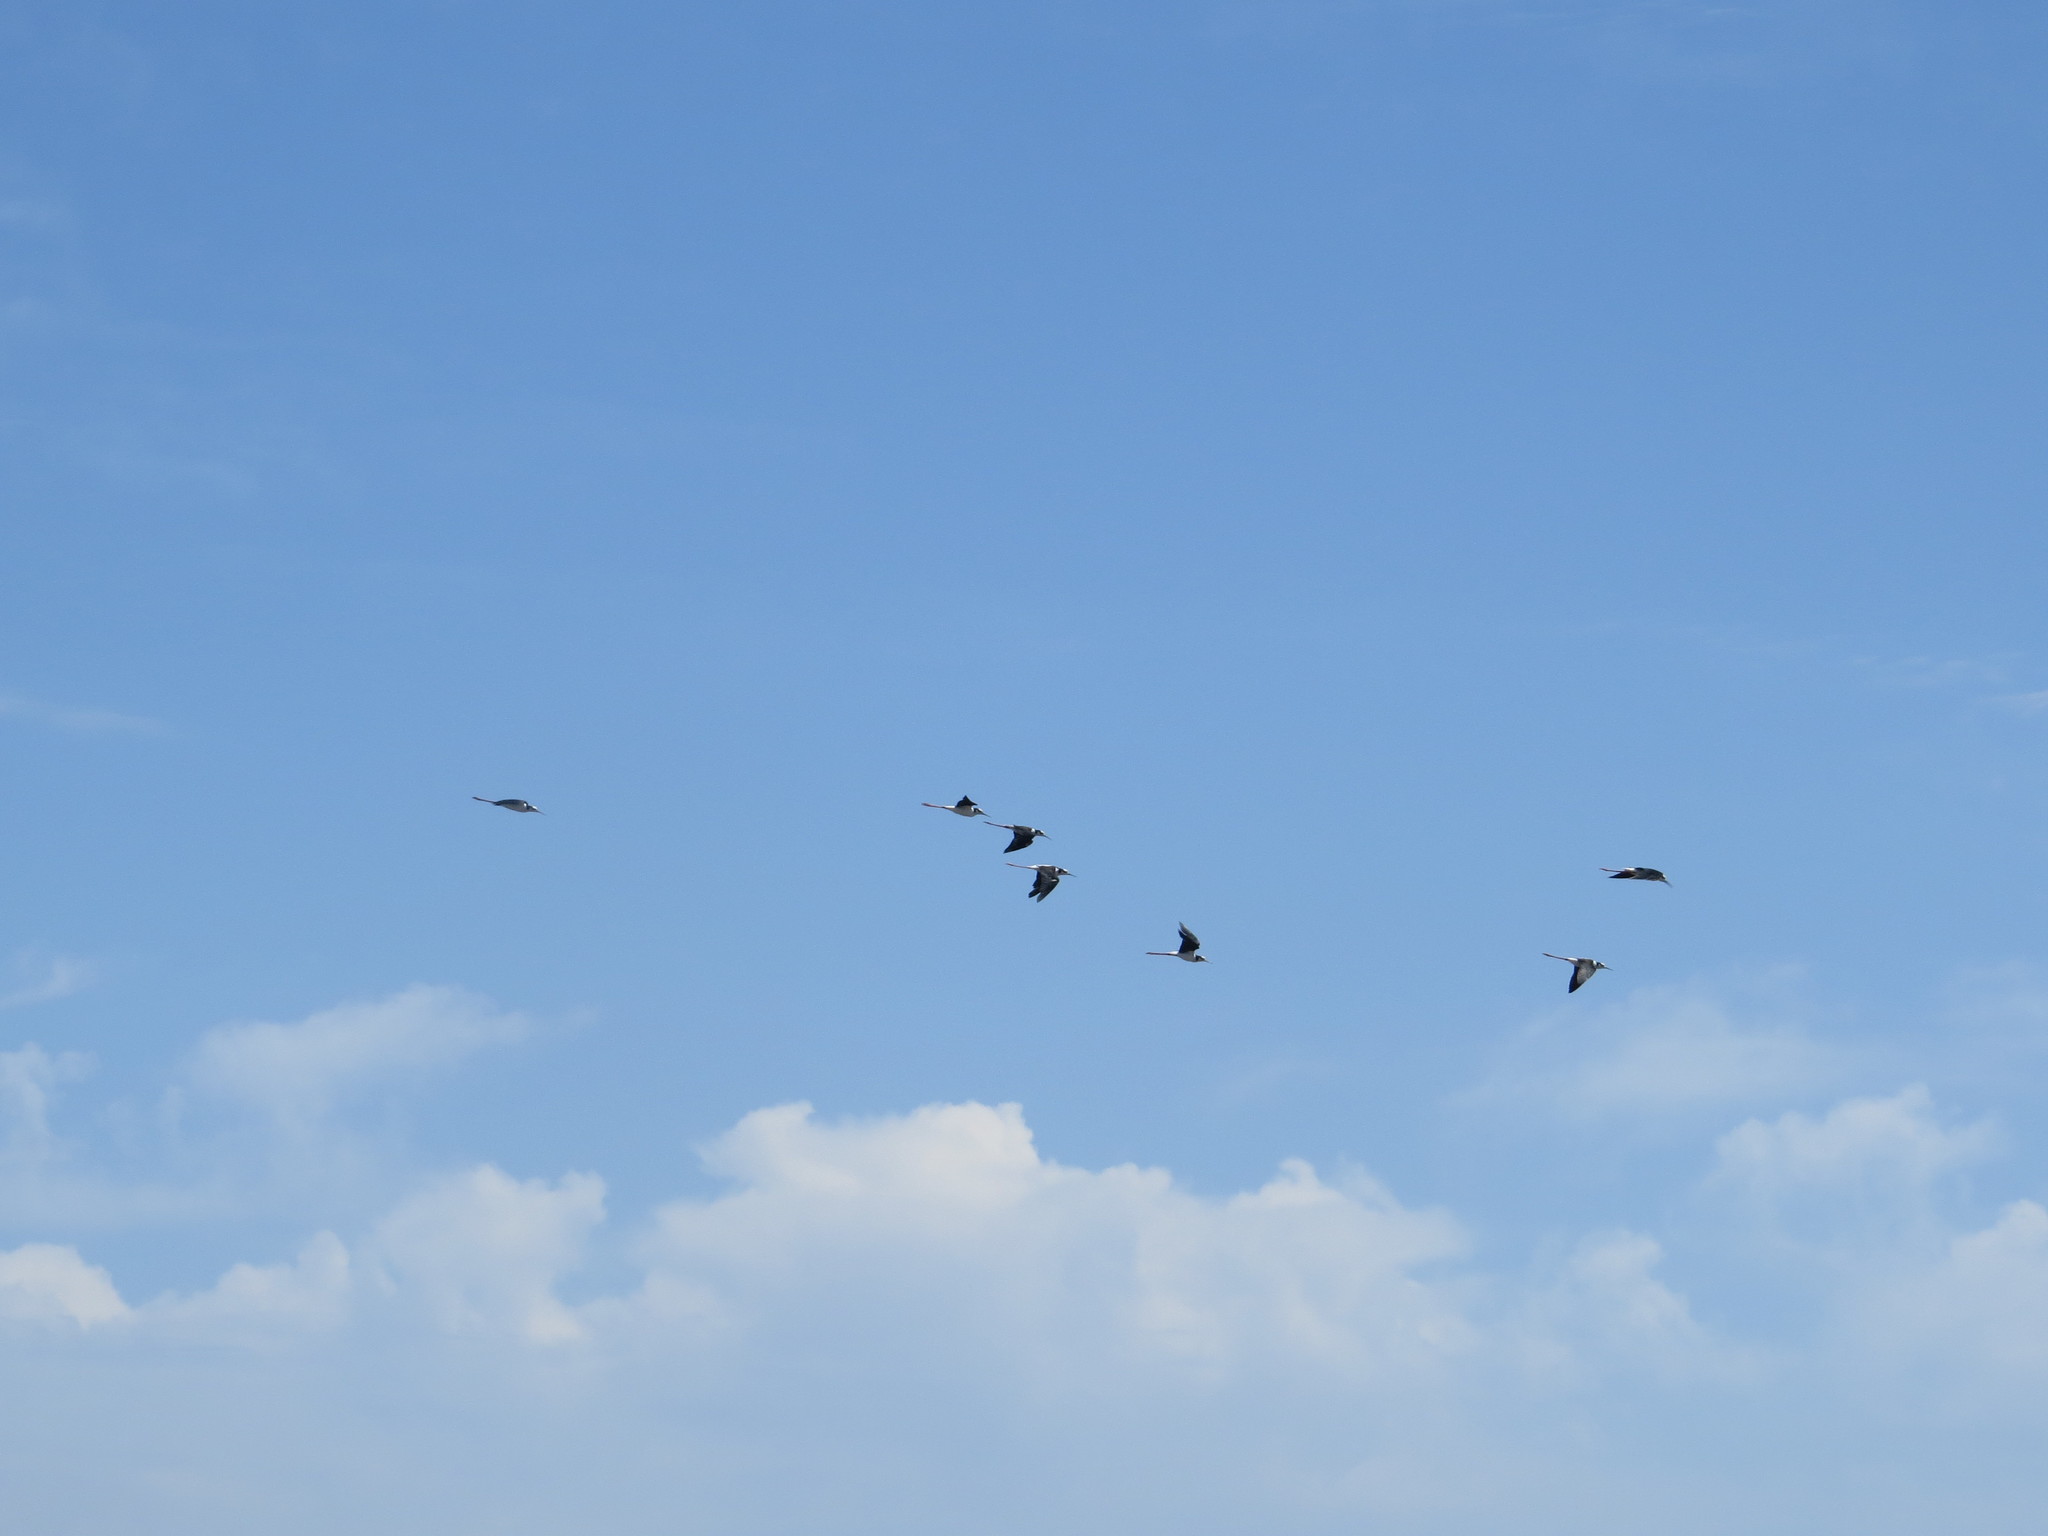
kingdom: Animalia
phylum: Chordata
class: Aves
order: Charadriiformes
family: Recurvirostridae
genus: Himantopus
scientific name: Himantopus mexicanus
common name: Black-necked stilt
